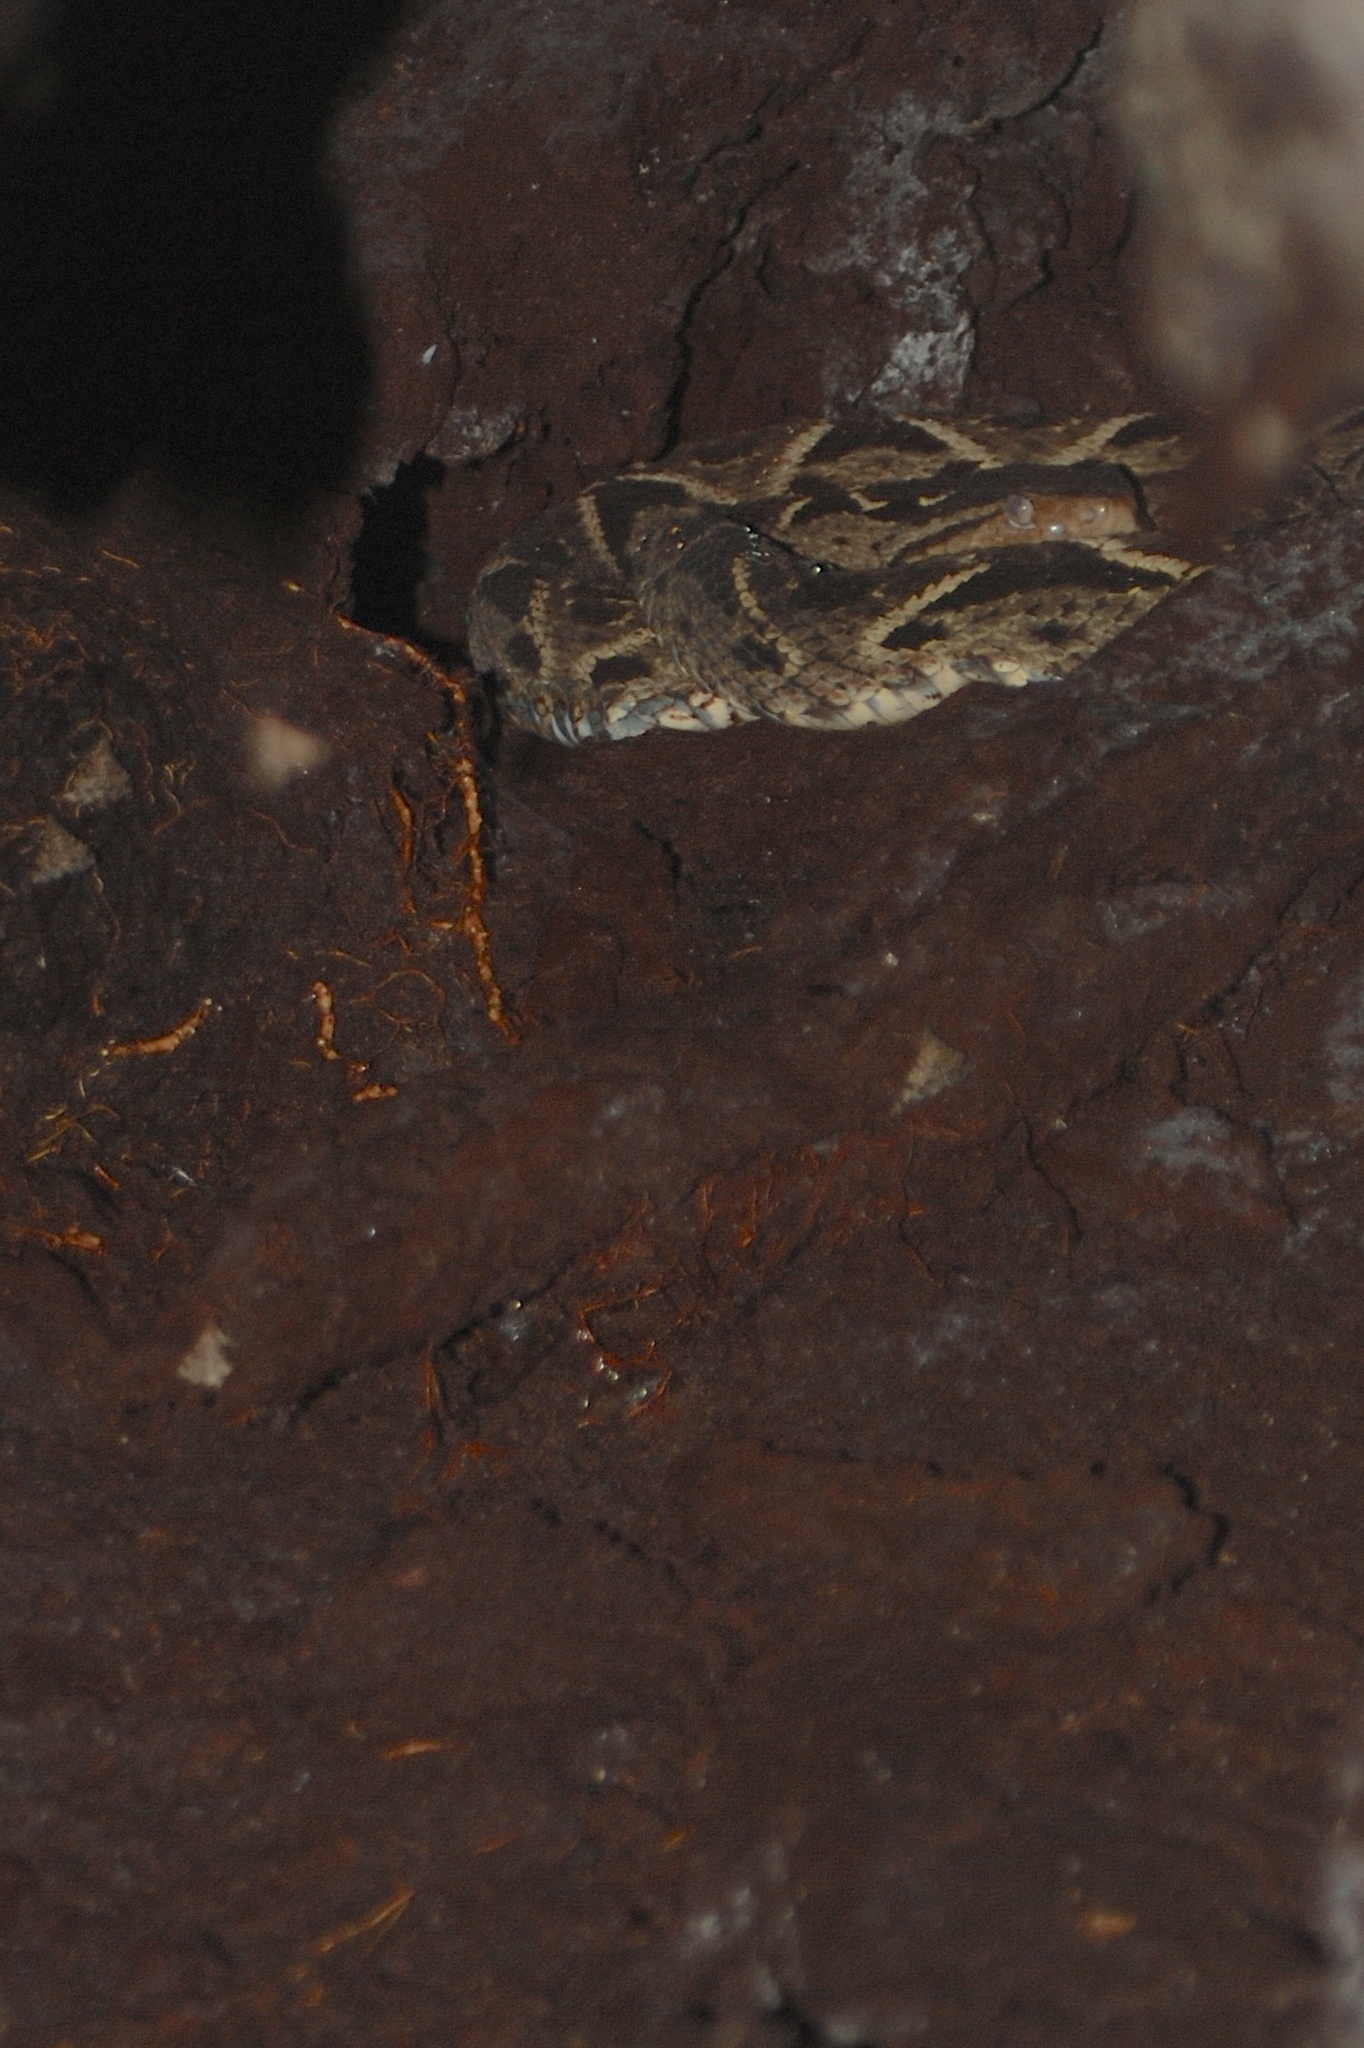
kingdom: Animalia
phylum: Chordata
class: Squamata
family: Viperidae
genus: Bothrops
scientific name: Bothrops asper
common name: Terciopelo
